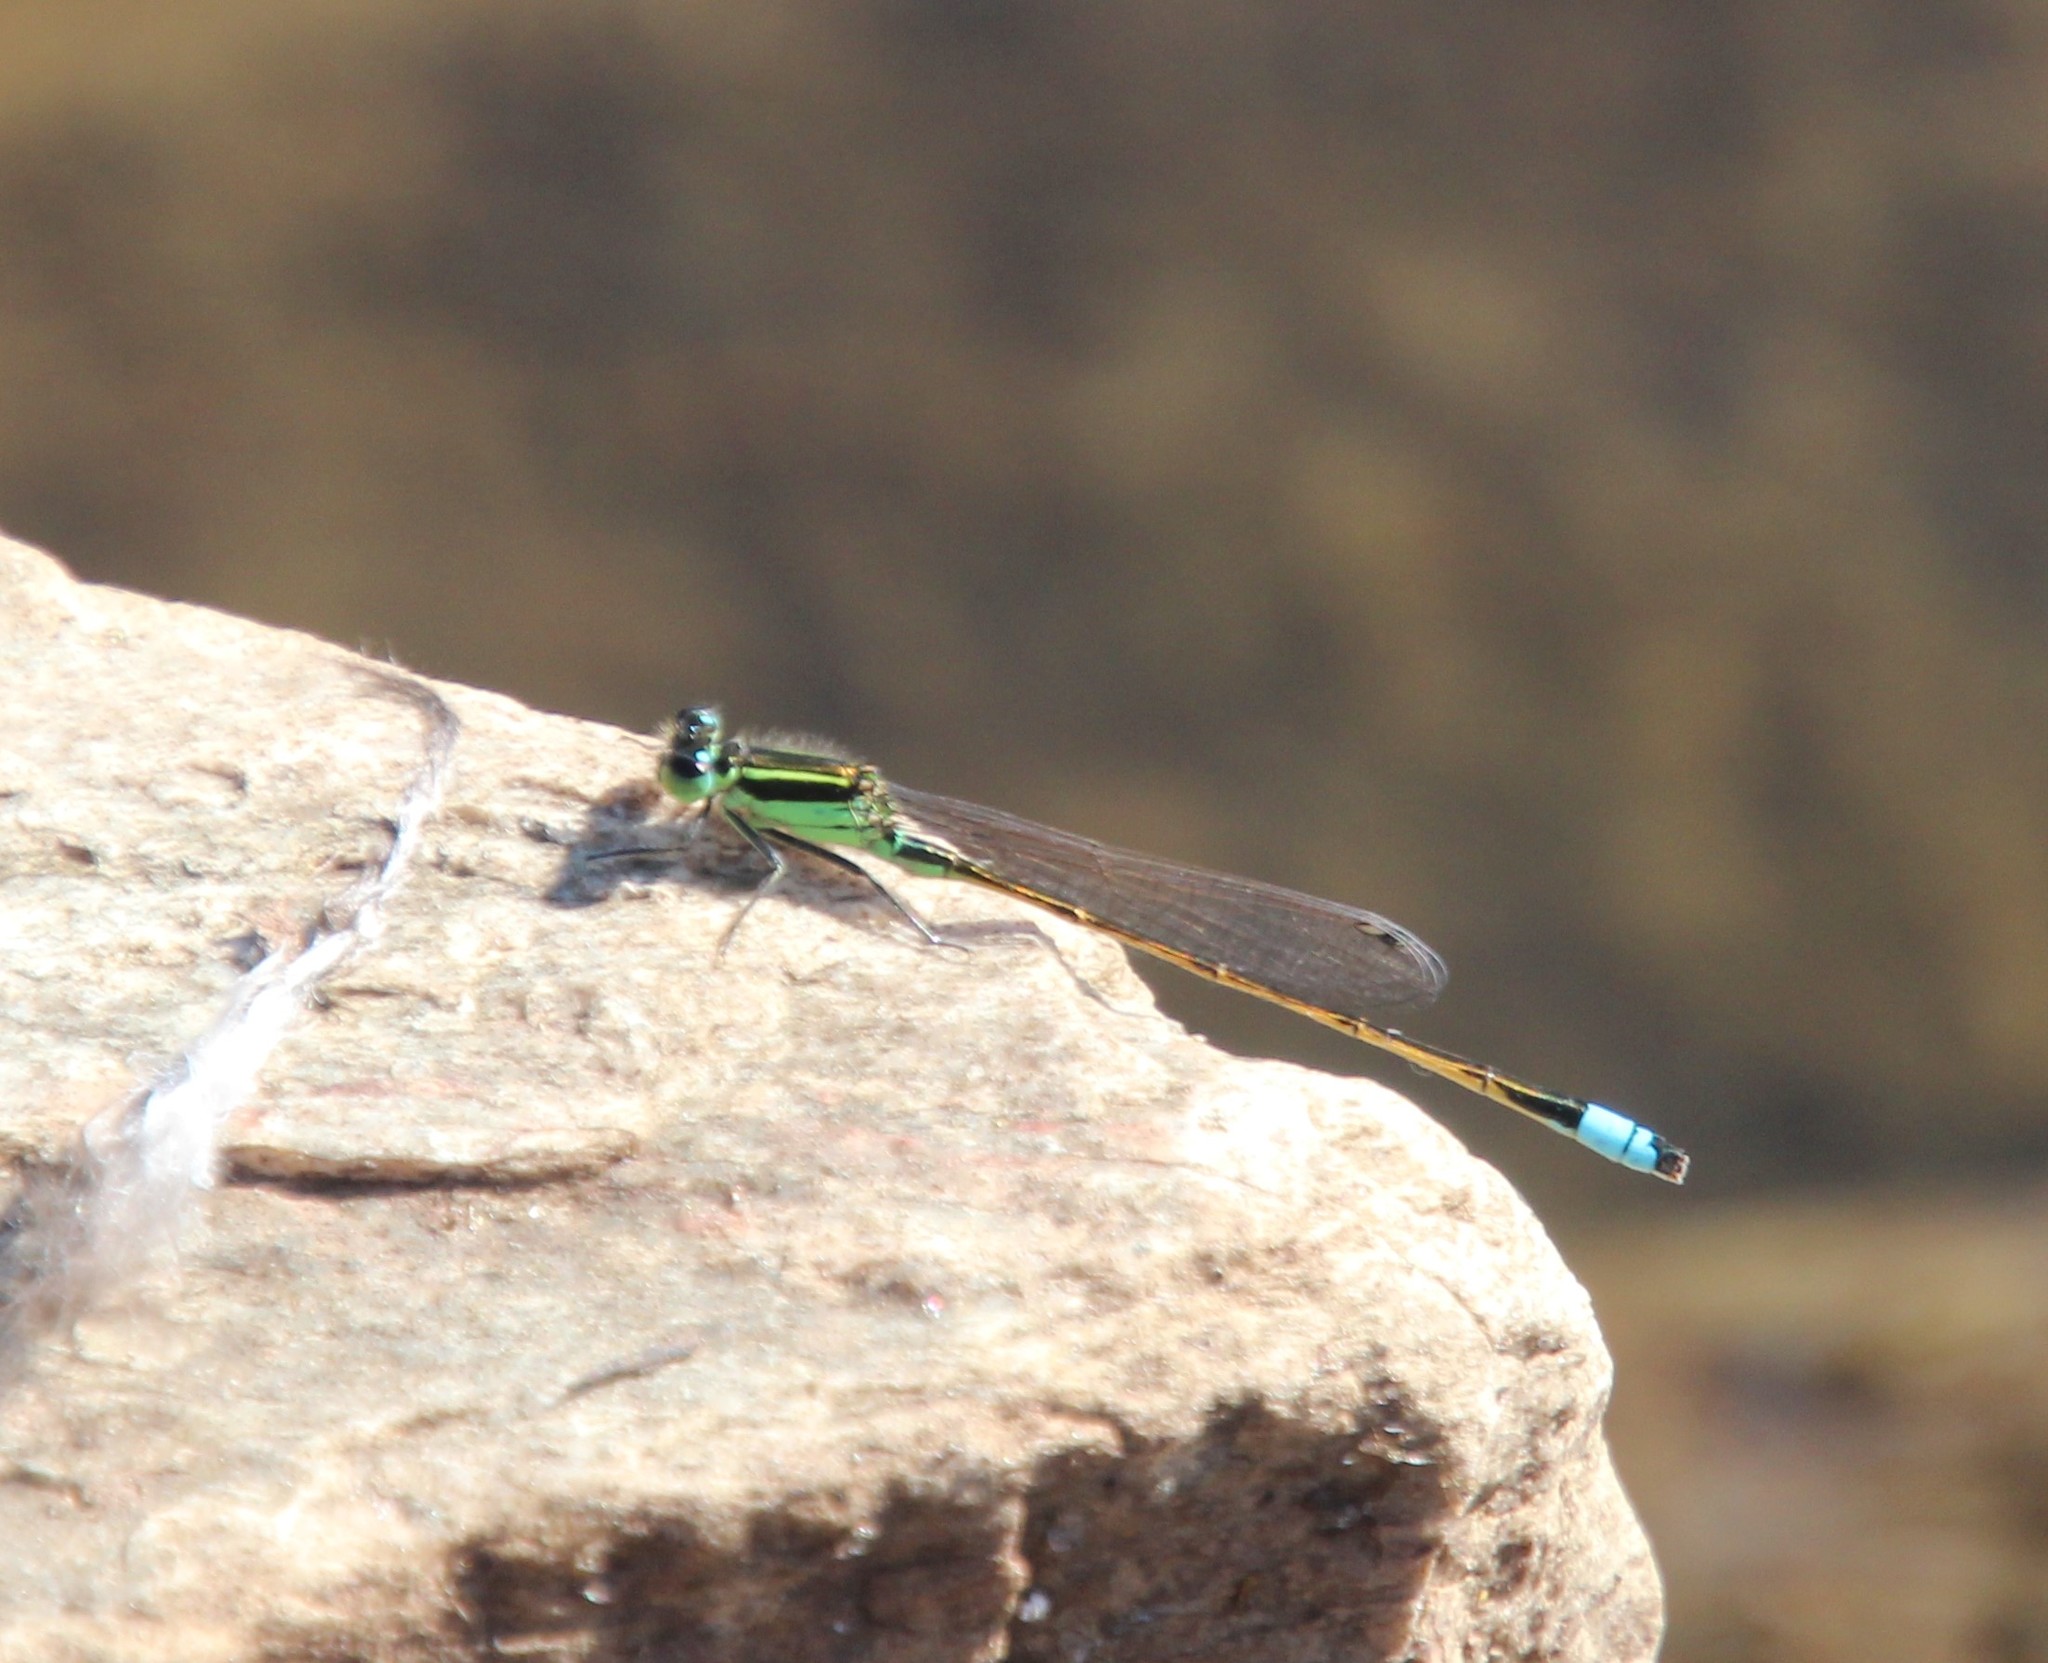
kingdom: Animalia
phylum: Arthropoda
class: Insecta
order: Odonata
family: Coenagrionidae
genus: Ischnura
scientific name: Ischnura ramburii
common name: Rambur's forktail
